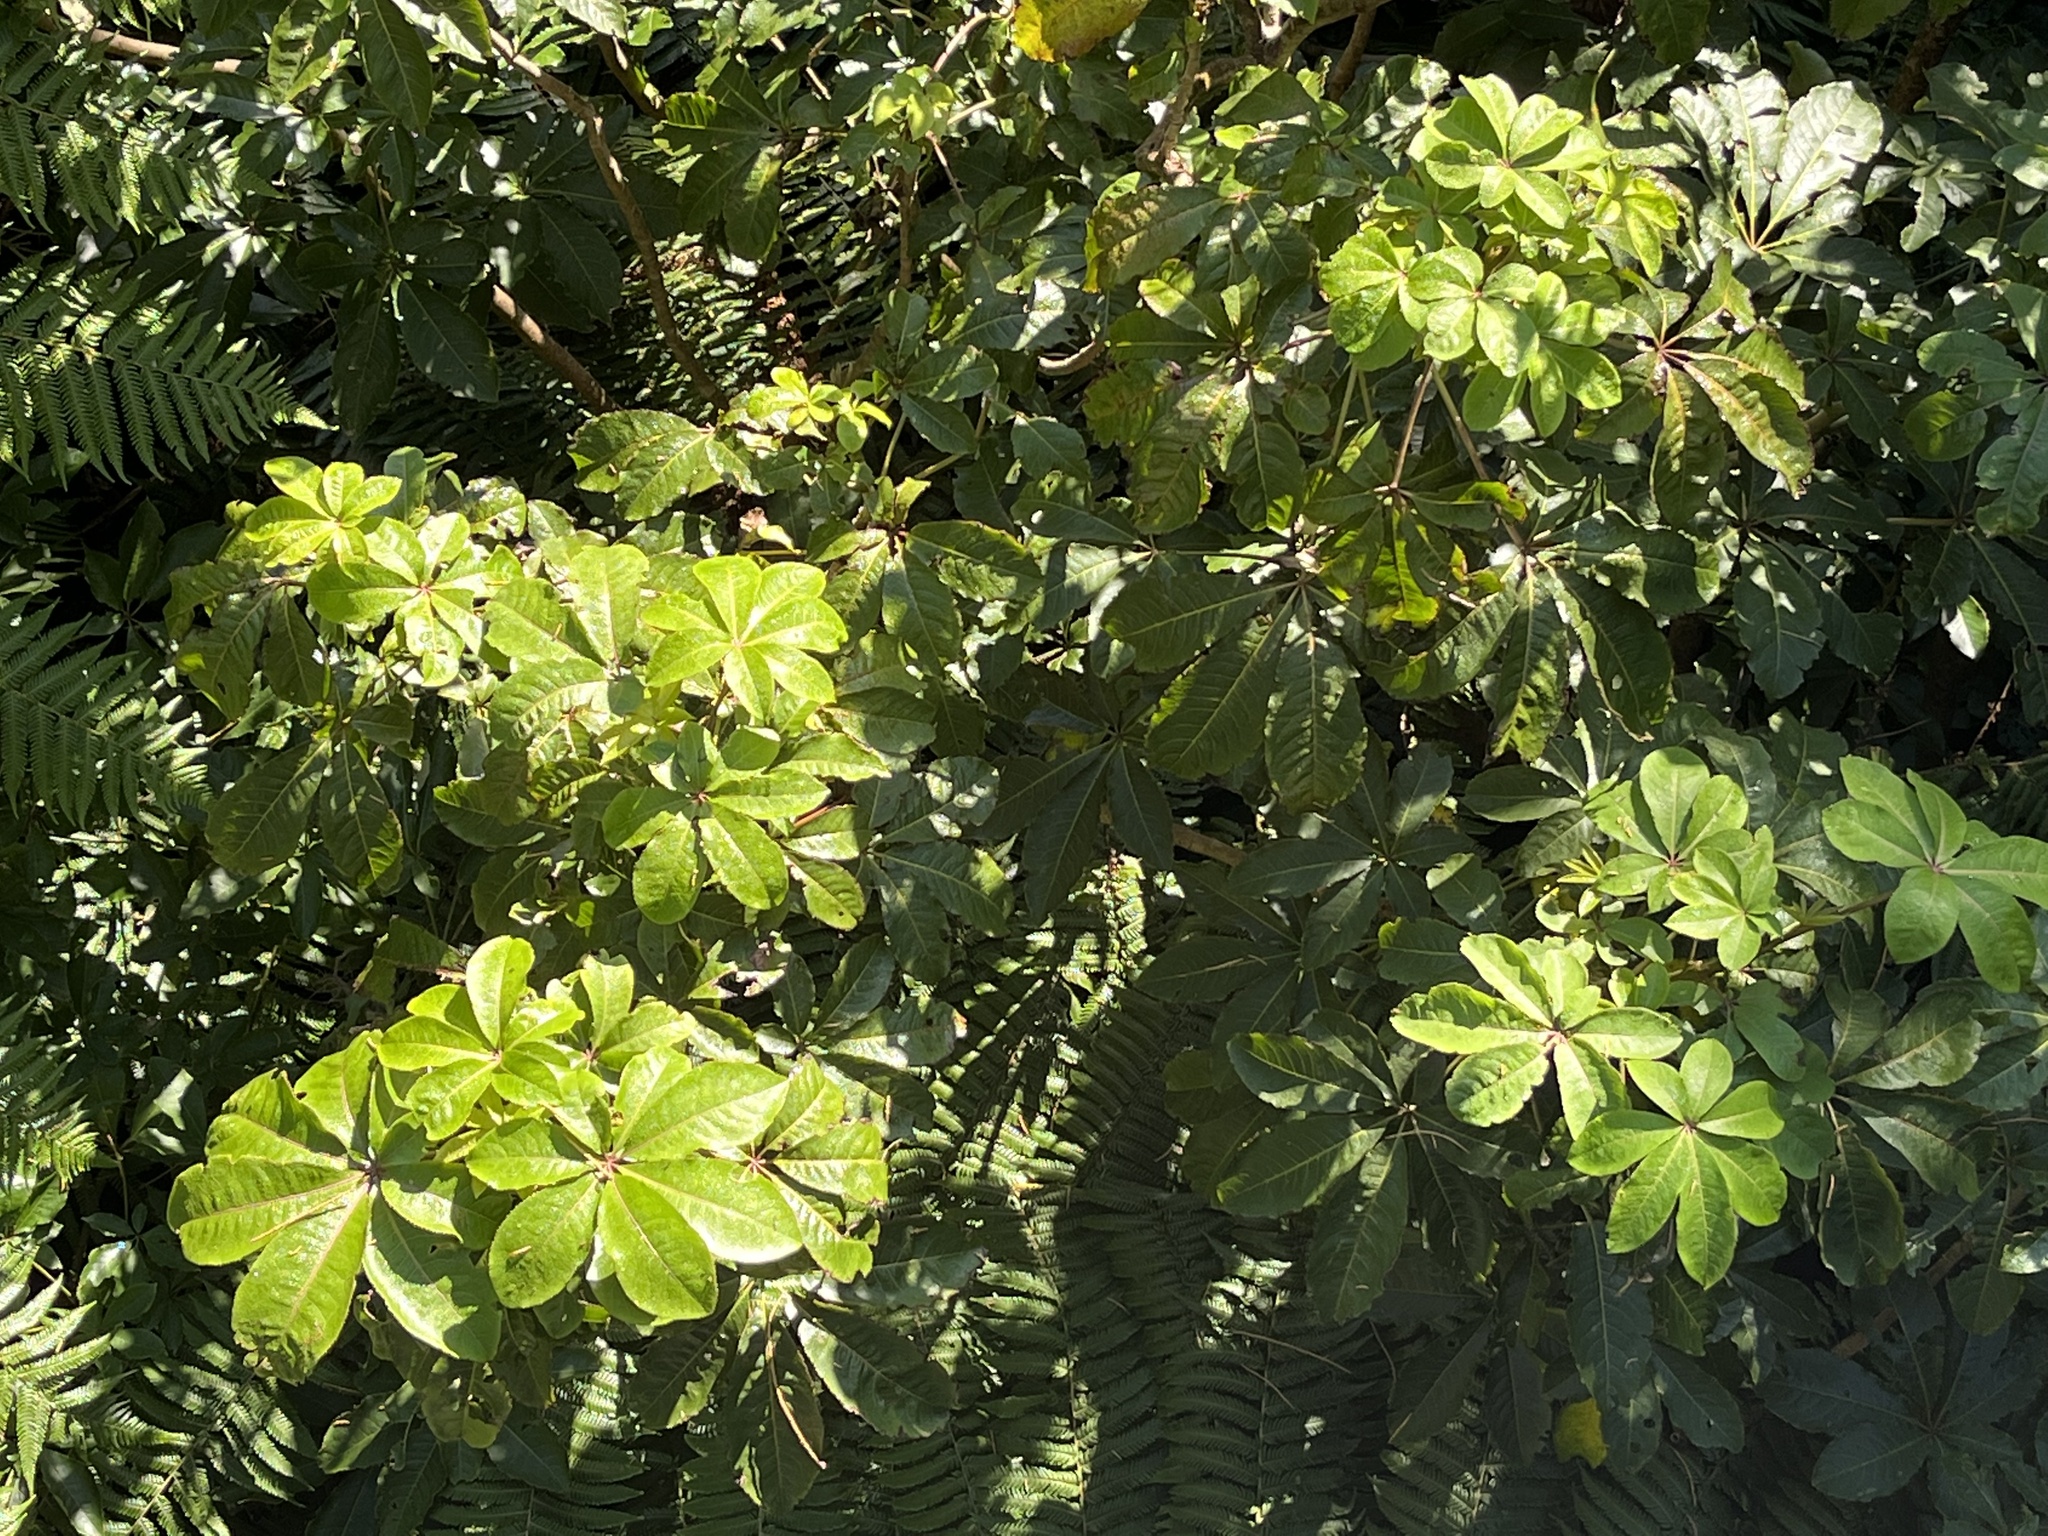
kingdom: Plantae
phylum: Tracheophyta
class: Magnoliopsida
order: Apiales
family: Araliaceae
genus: Schefflera
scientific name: Schefflera digitata
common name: Pate
